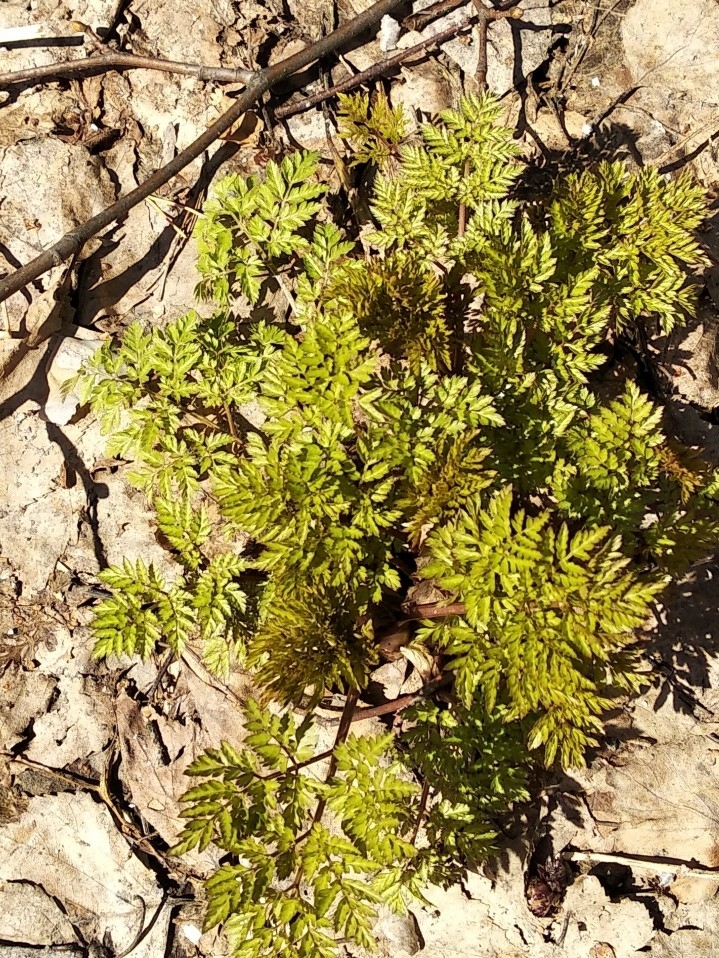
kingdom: Plantae
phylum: Tracheophyta
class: Magnoliopsida
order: Apiales
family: Apiaceae
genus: Anthriscus
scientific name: Anthriscus sylvestris
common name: Cow parsley
